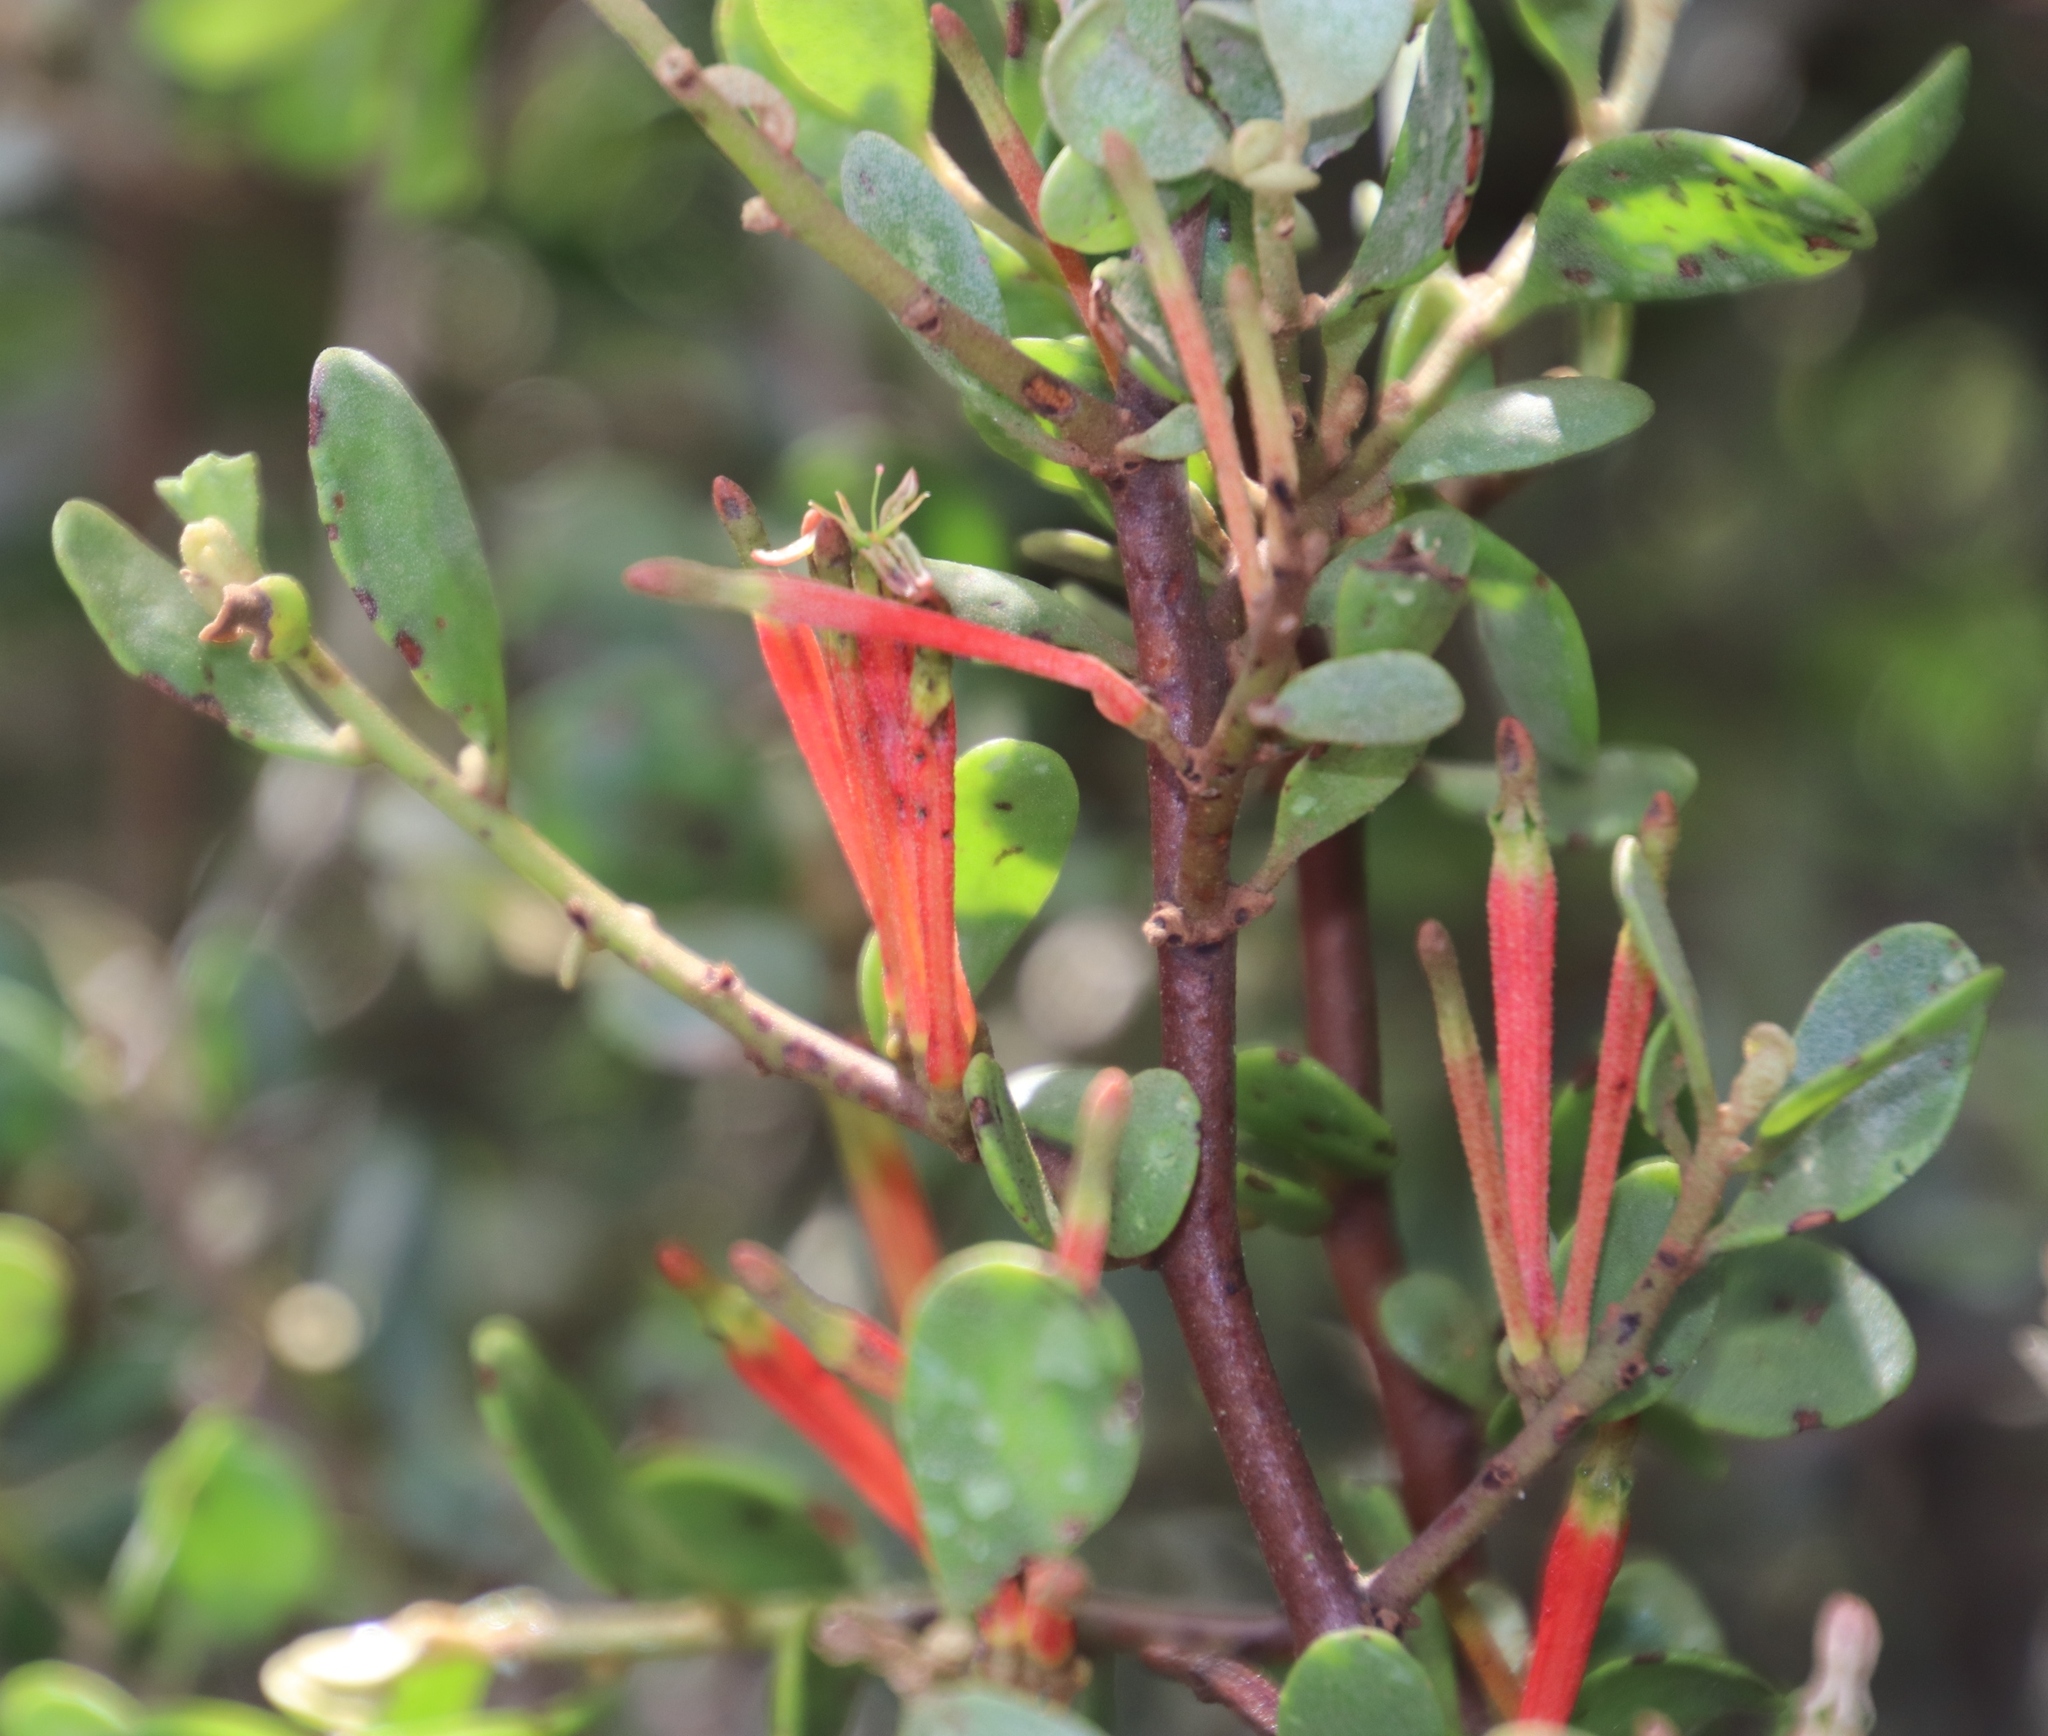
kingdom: Plantae
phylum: Tracheophyta
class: Magnoliopsida
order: Santalales
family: Loranthaceae
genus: Septulina
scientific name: Septulina glauca
